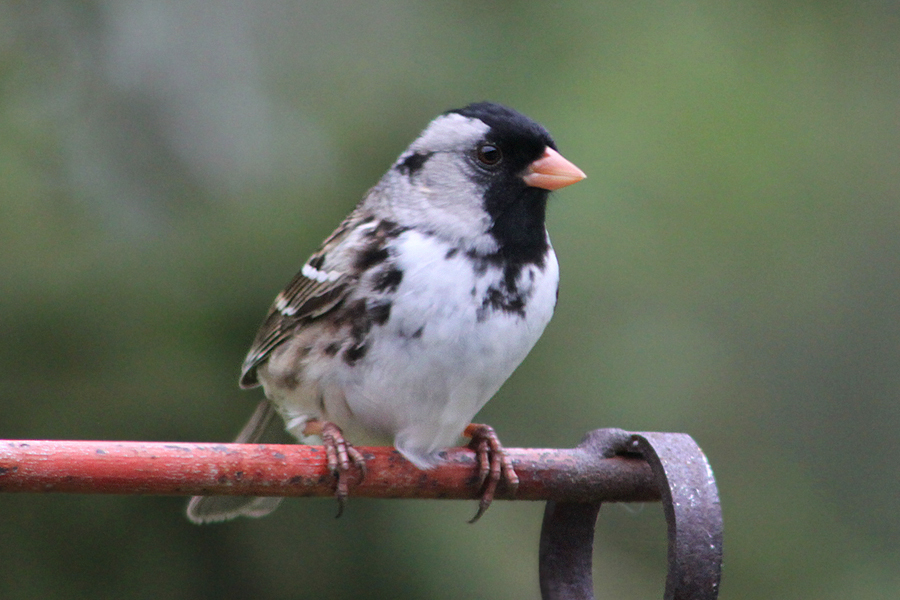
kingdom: Animalia
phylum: Chordata
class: Aves
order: Passeriformes
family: Passerellidae
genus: Zonotrichia
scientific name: Zonotrichia querula
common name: Harris's sparrow
